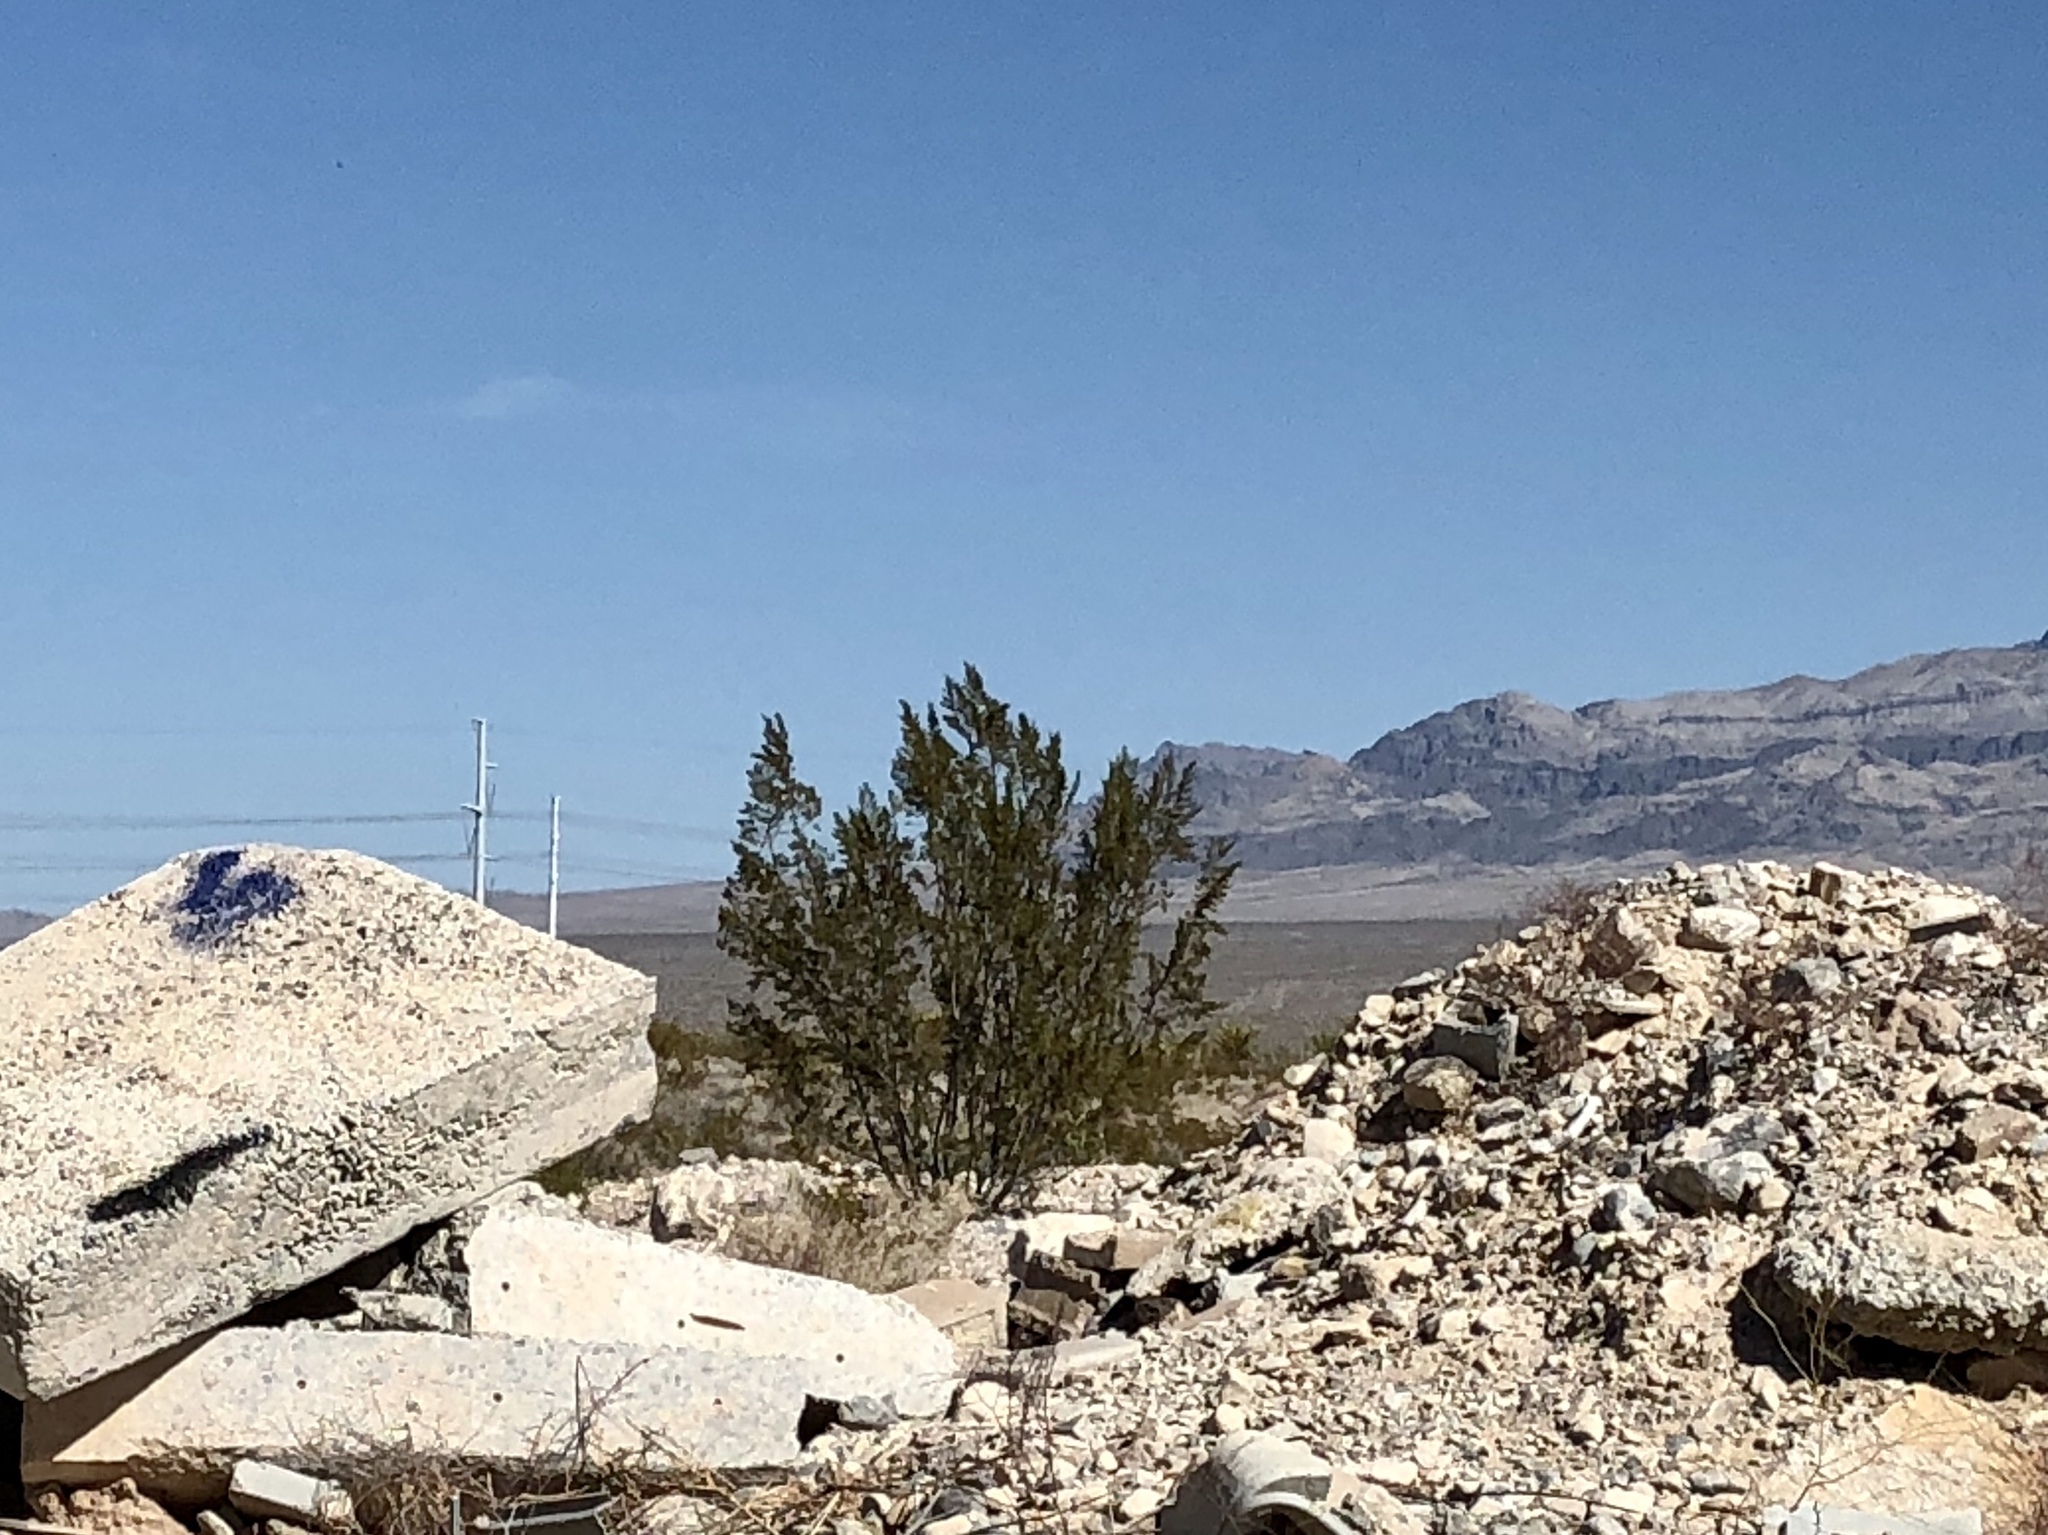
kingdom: Plantae
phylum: Tracheophyta
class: Magnoliopsida
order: Zygophyllales
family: Zygophyllaceae
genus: Larrea
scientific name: Larrea tridentata
